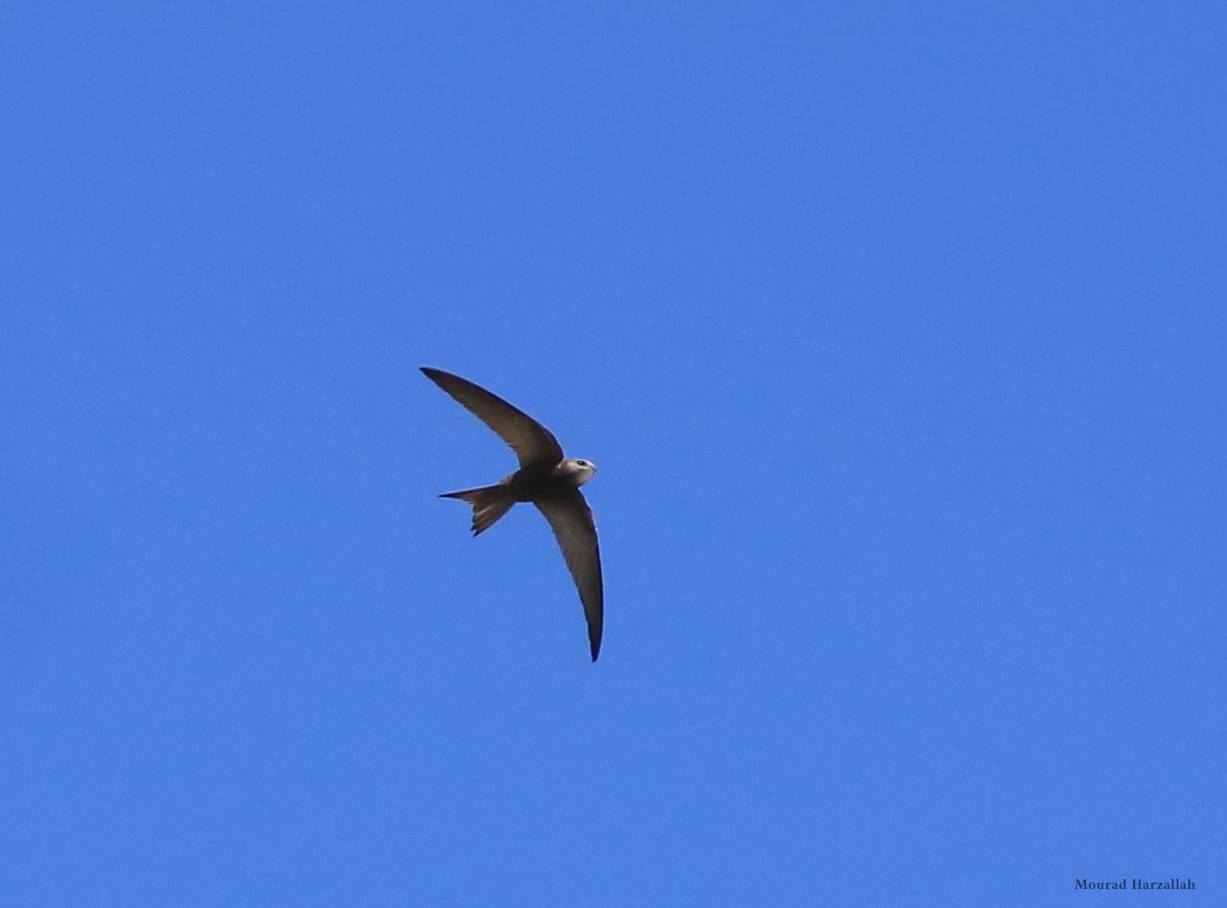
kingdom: Animalia
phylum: Chordata
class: Aves
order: Apodiformes
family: Apodidae
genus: Apus
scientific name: Apus pallidus
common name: Pallid swift
